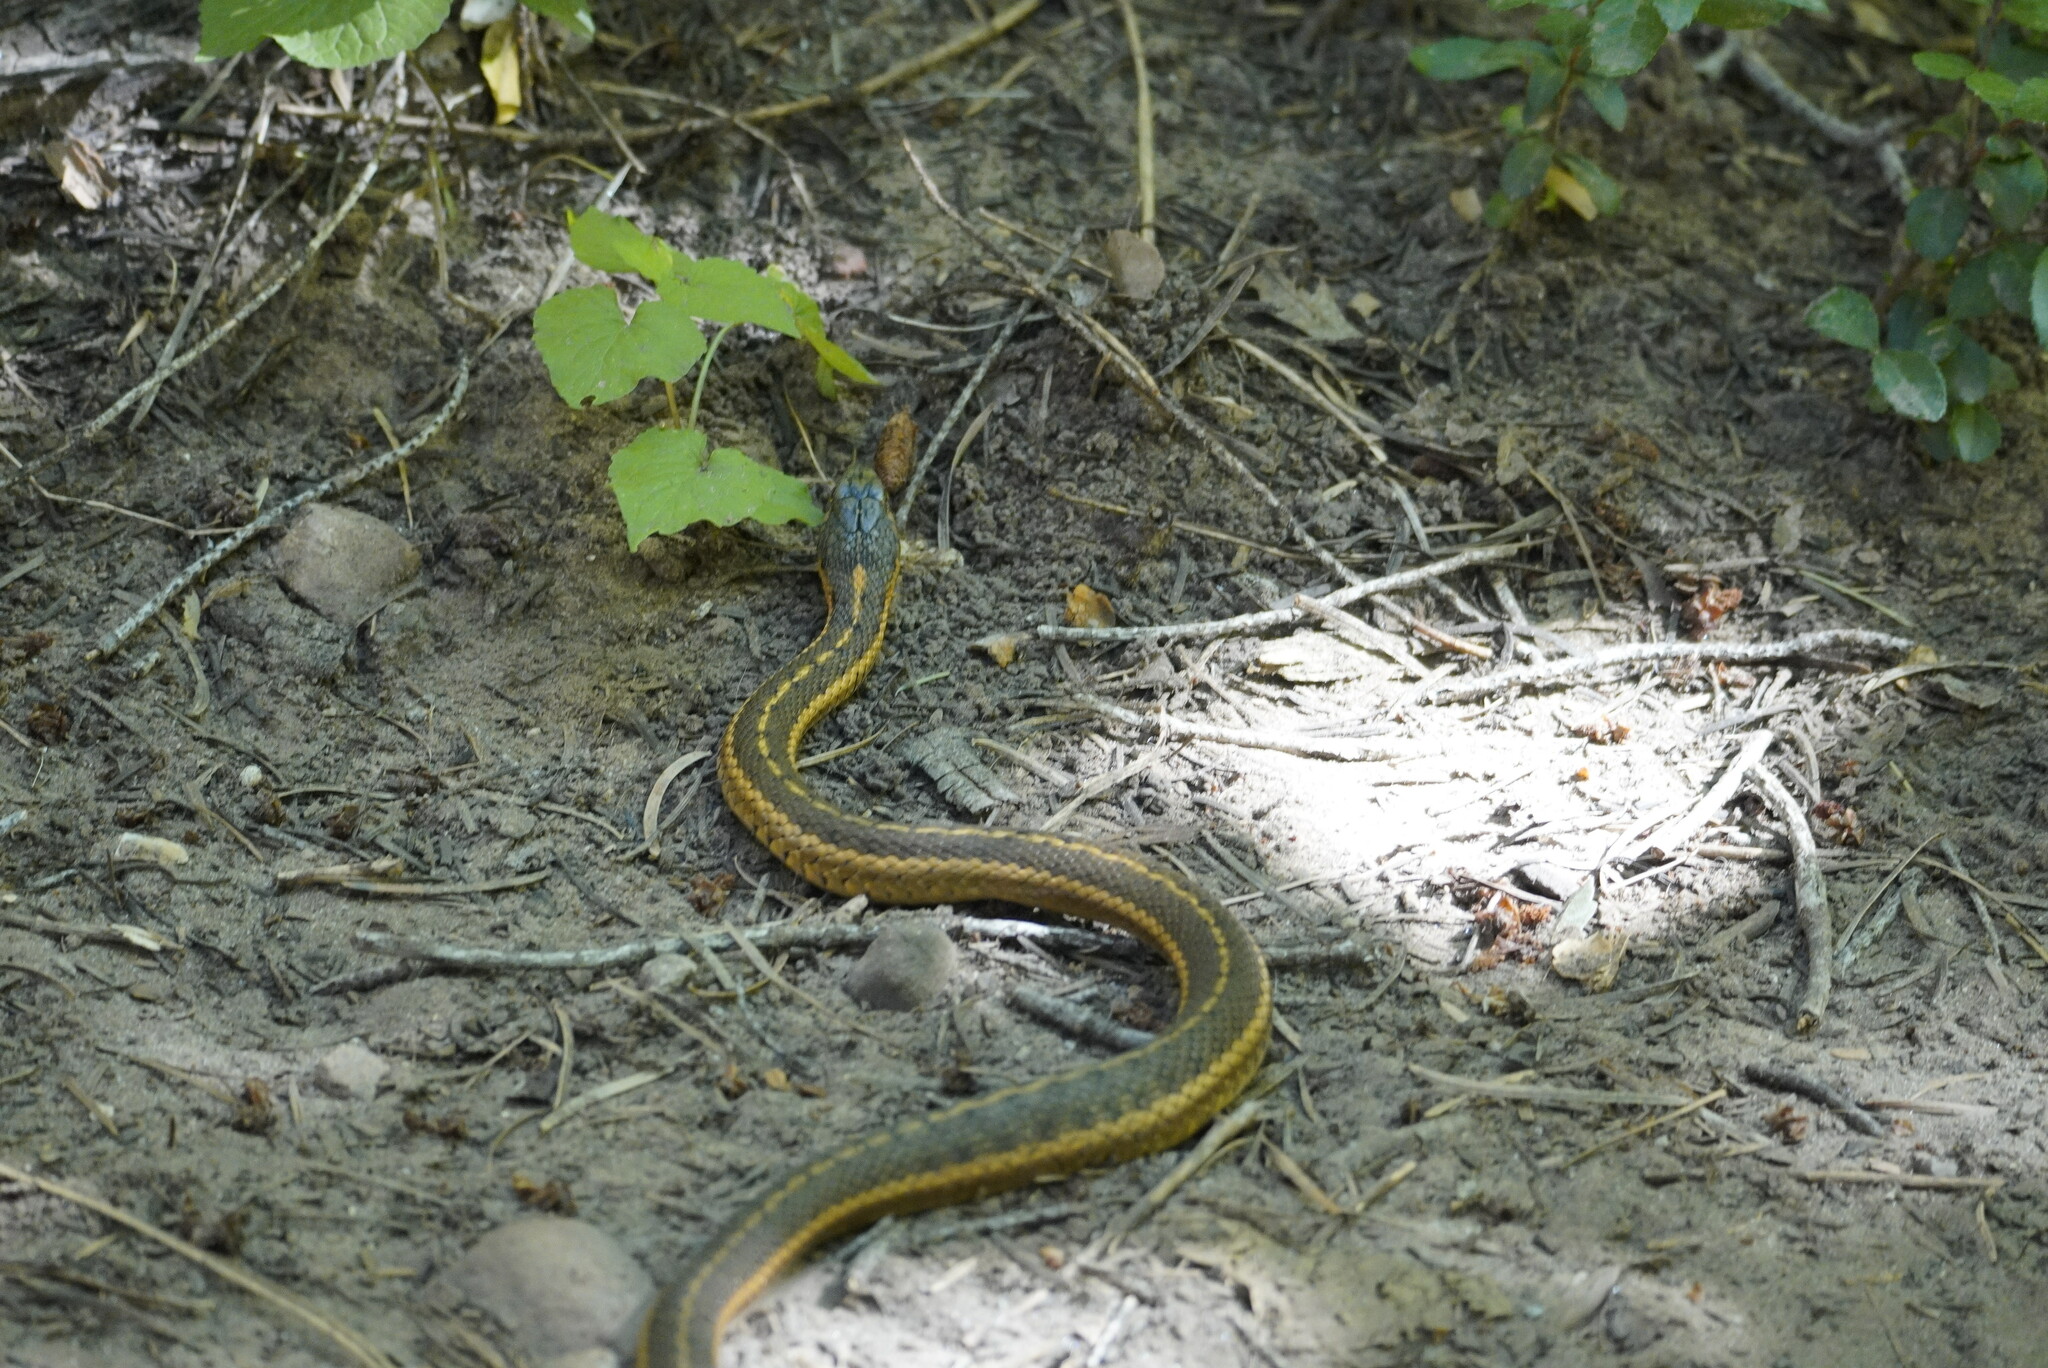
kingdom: Animalia
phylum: Chordata
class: Squamata
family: Colubridae
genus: Thamnophis
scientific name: Thamnophis elegans
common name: Western terrestrial garter snake
